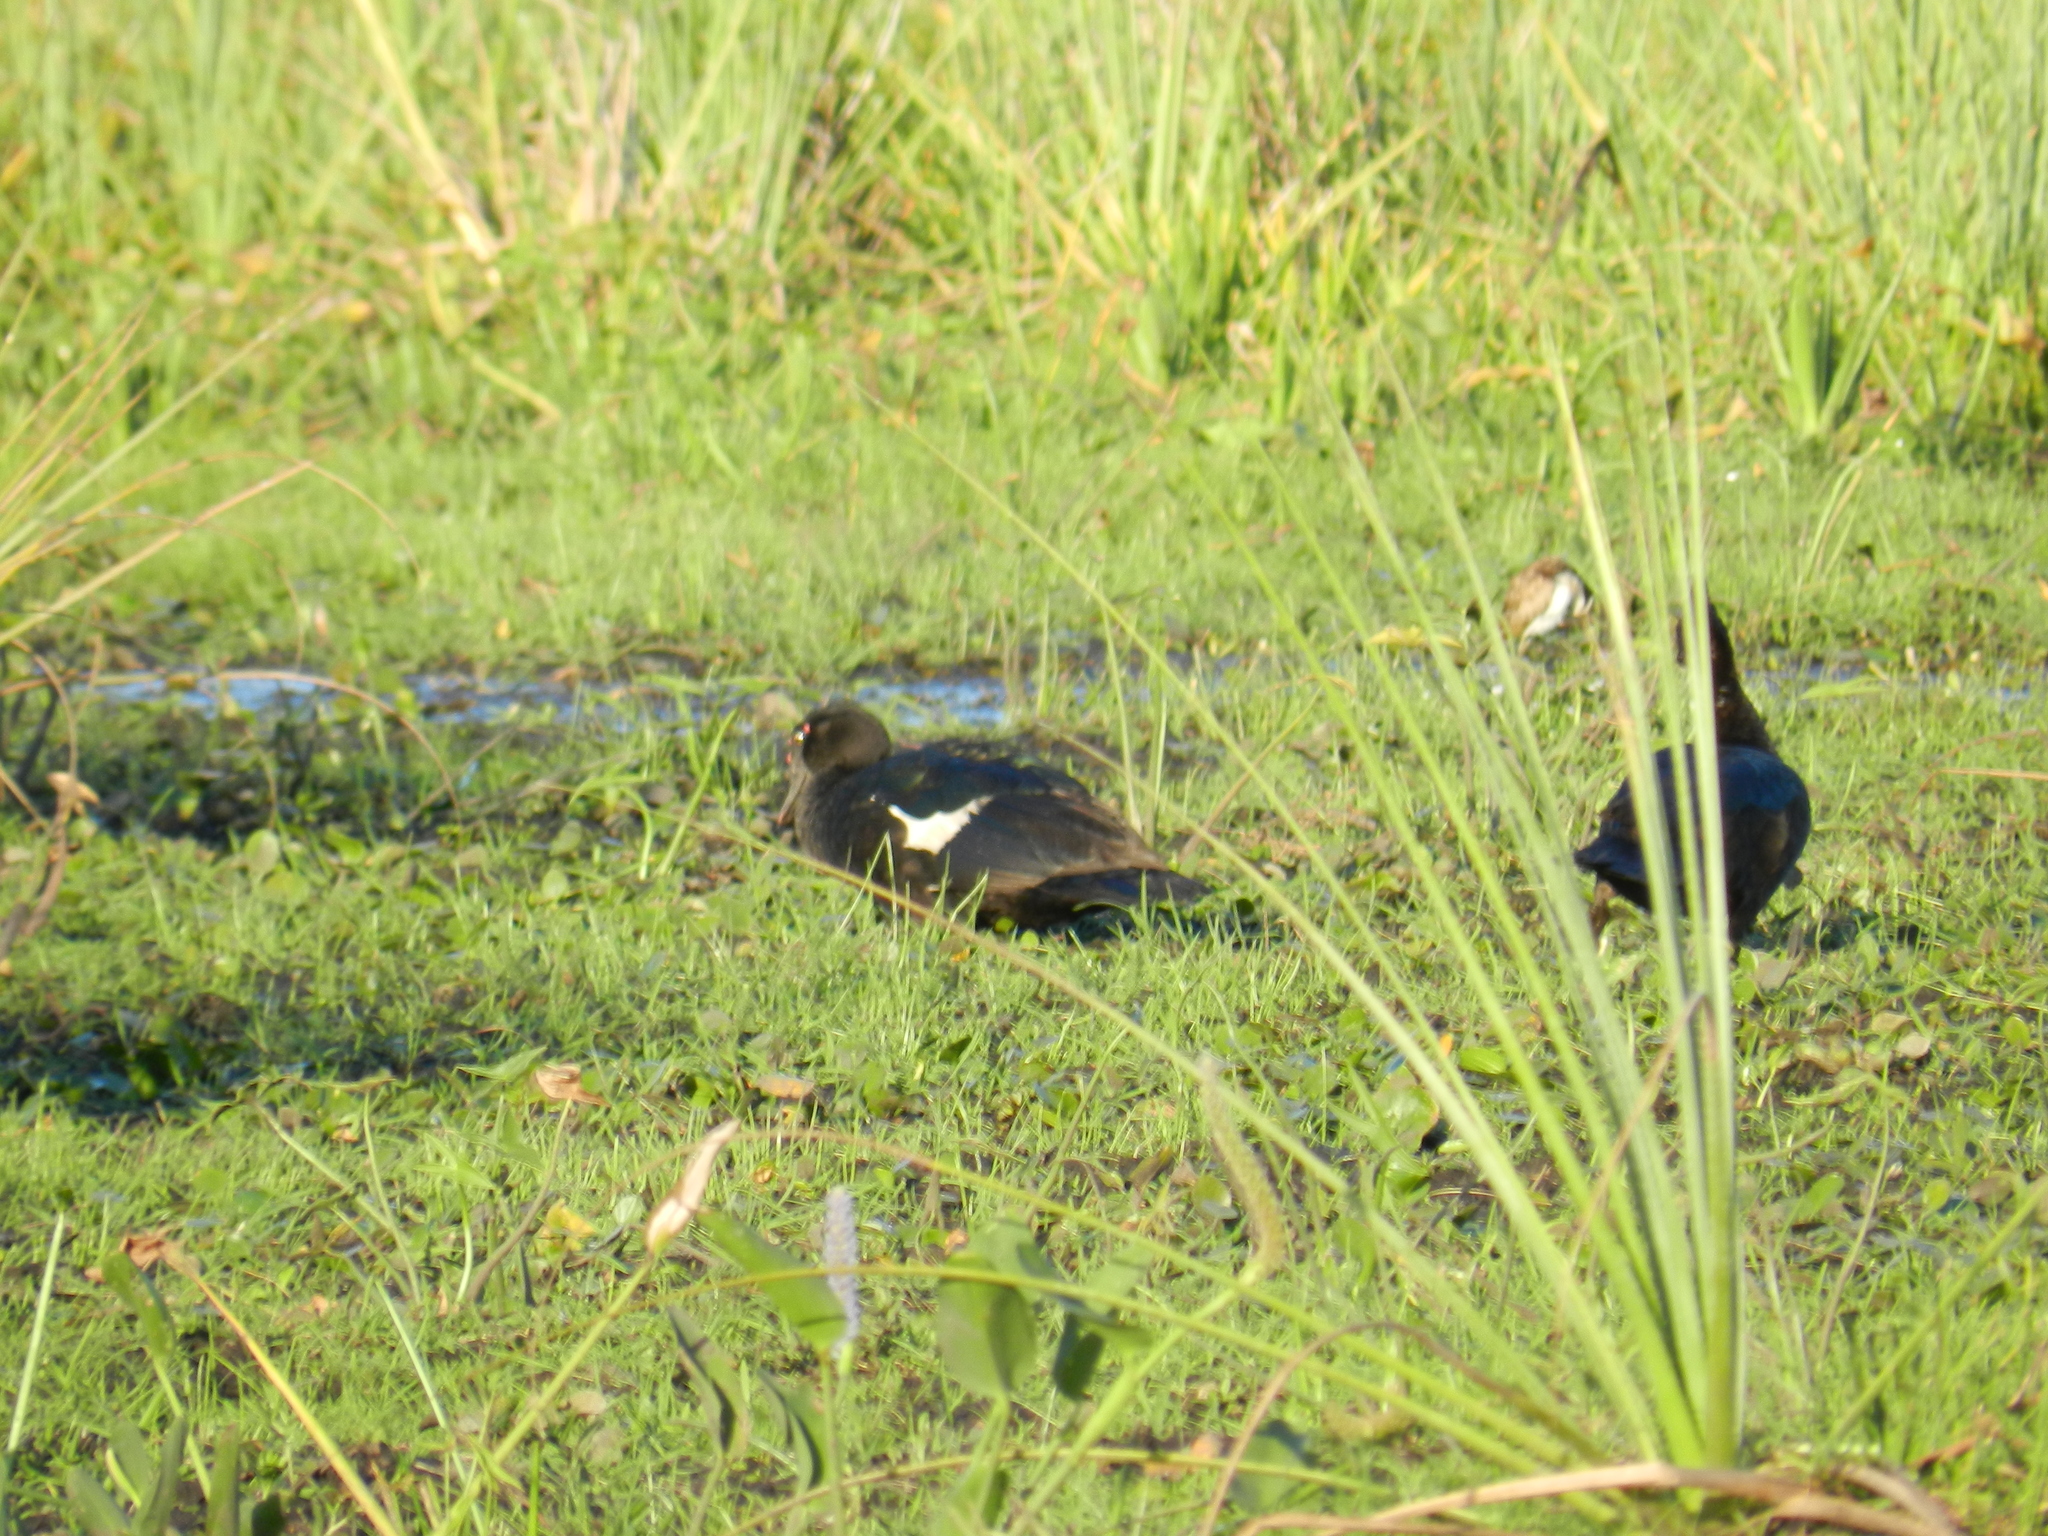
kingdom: Animalia
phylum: Chordata
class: Aves
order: Anseriformes
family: Anatidae
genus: Cairina
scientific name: Cairina moschata
